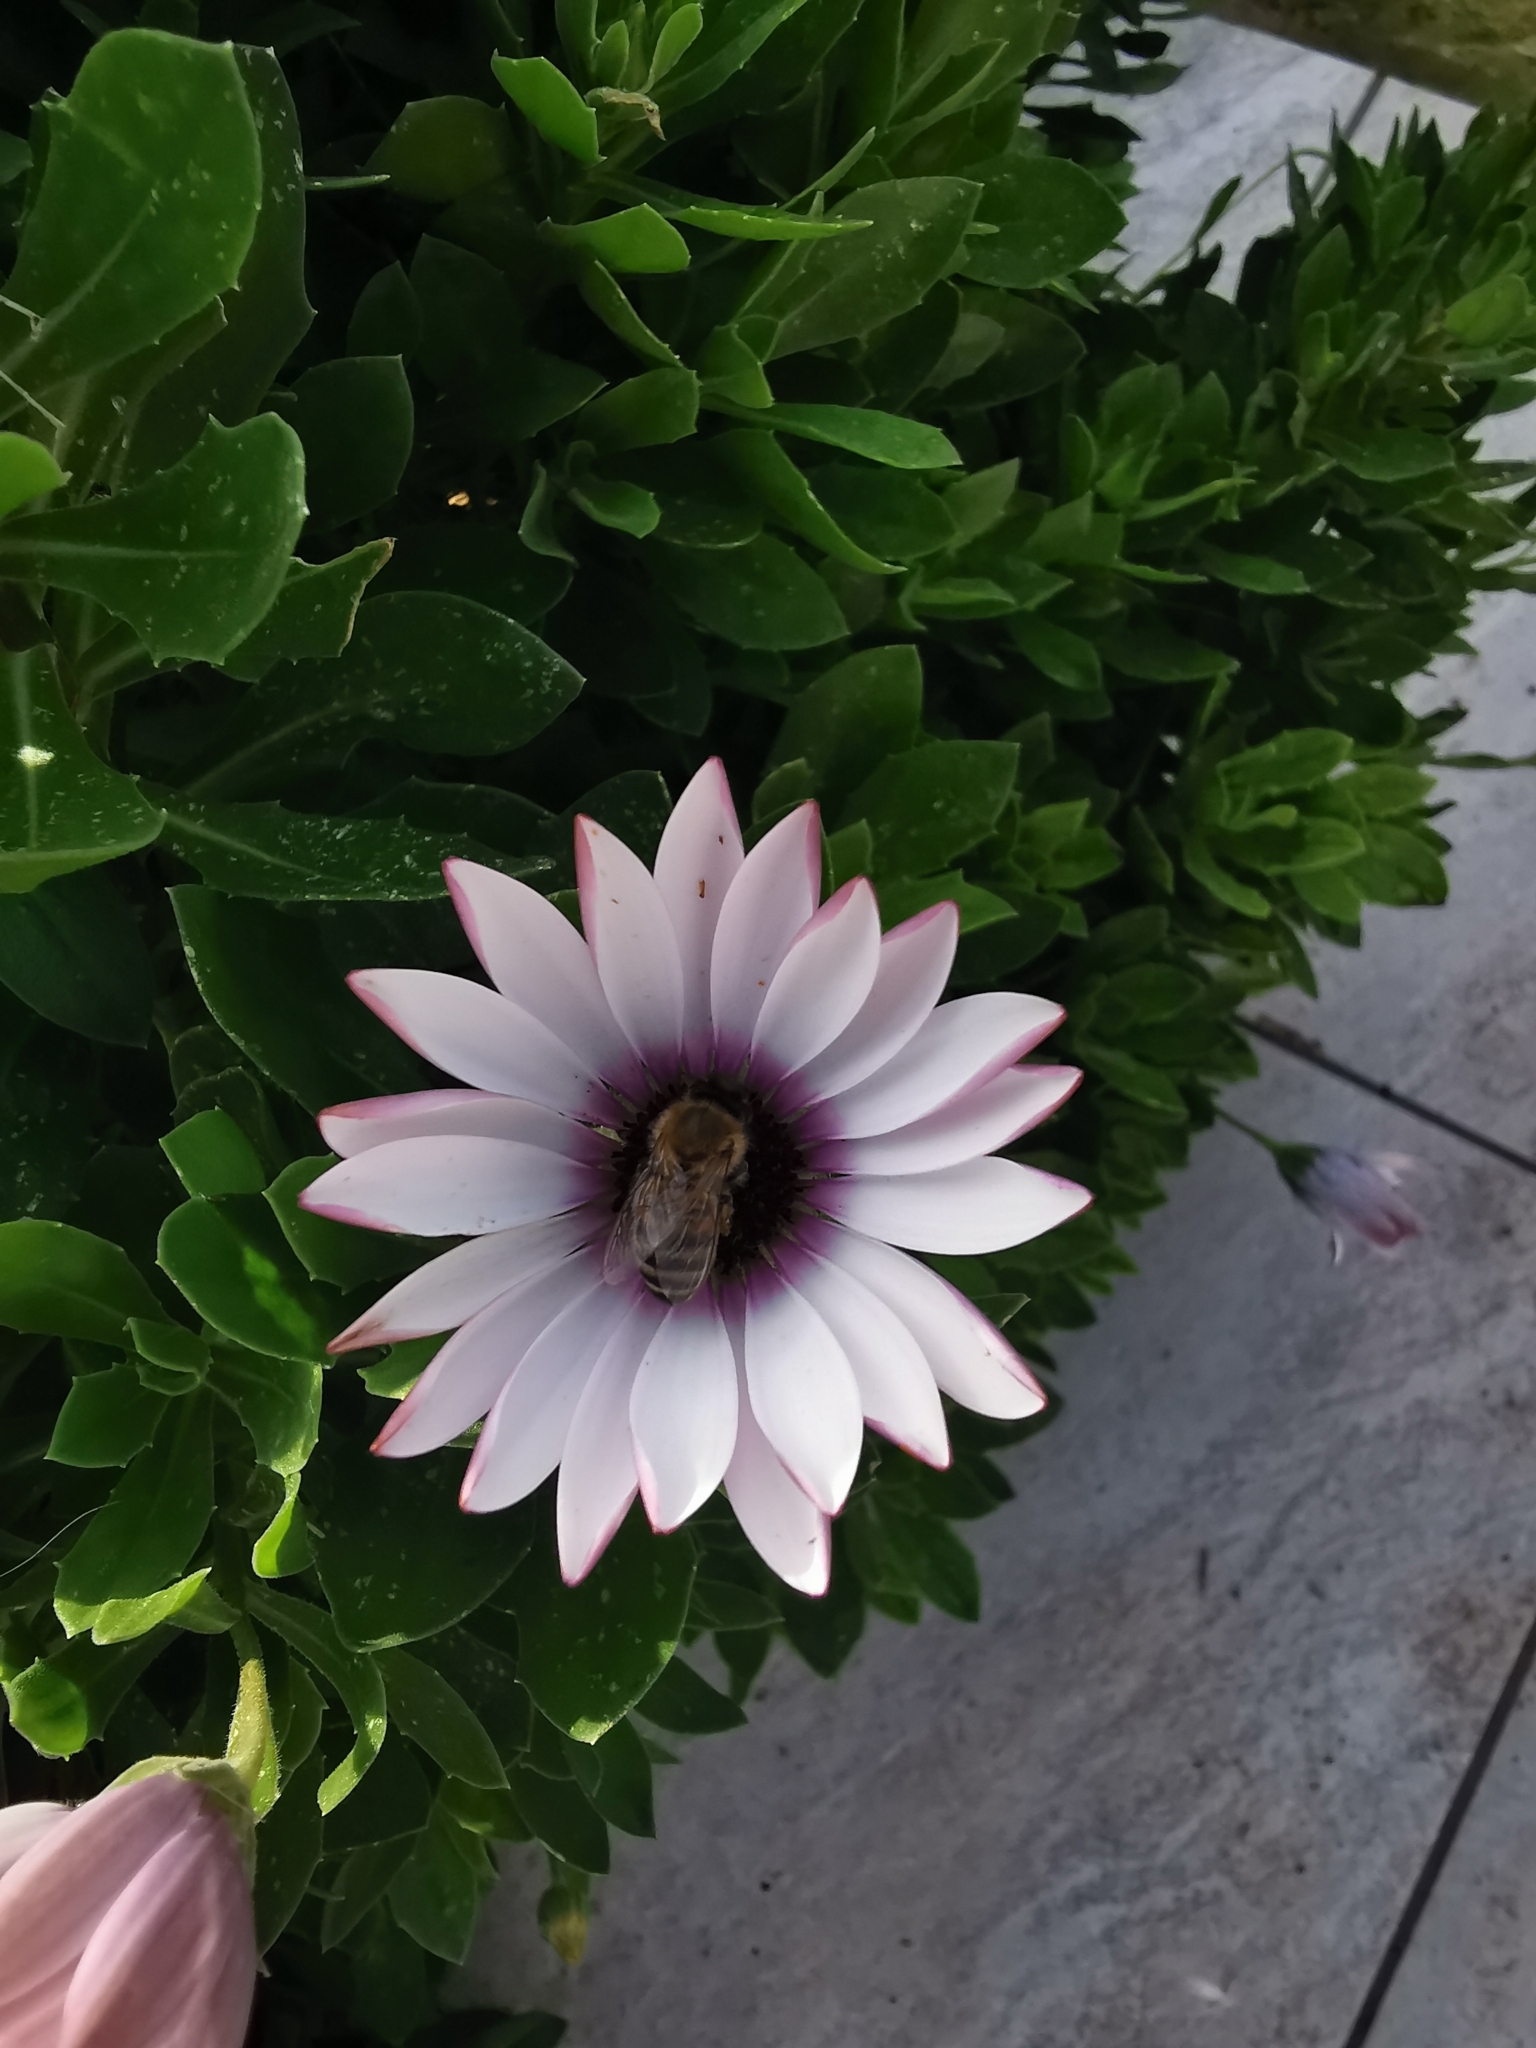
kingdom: Animalia
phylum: Arthropoda
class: Insecta
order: Hymenoptera
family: Apidae
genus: Apis
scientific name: Apis mellifera
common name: Honey bee
